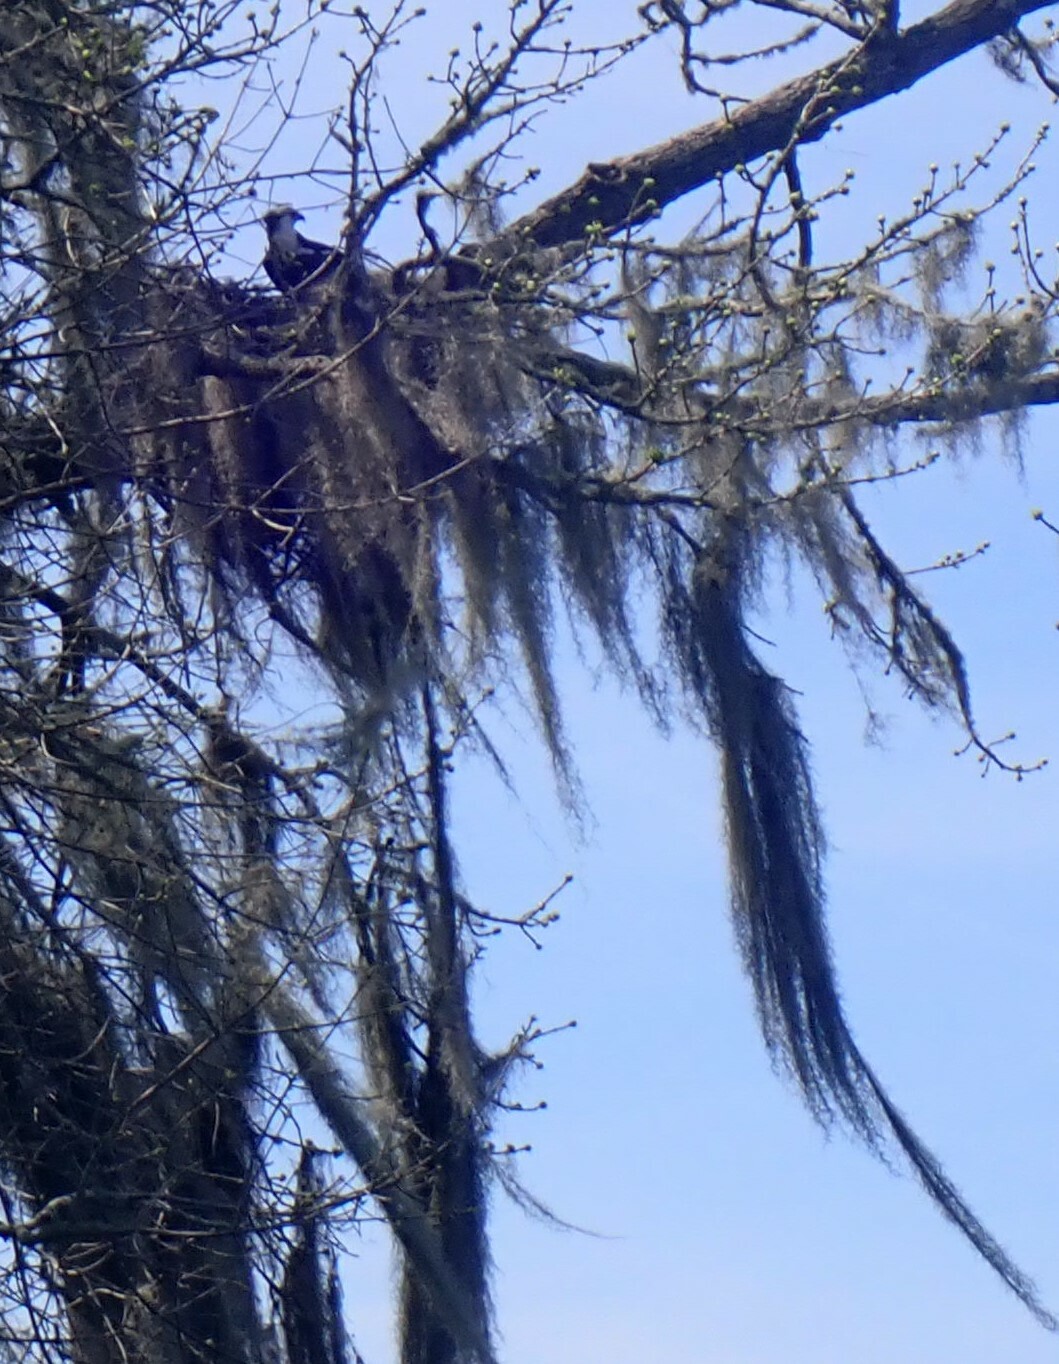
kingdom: Animalia
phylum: Chordata
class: Aves
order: Accipitriformes
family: Pandionidae
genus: Pandion
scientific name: Pandion haliaetus
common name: Osprey
